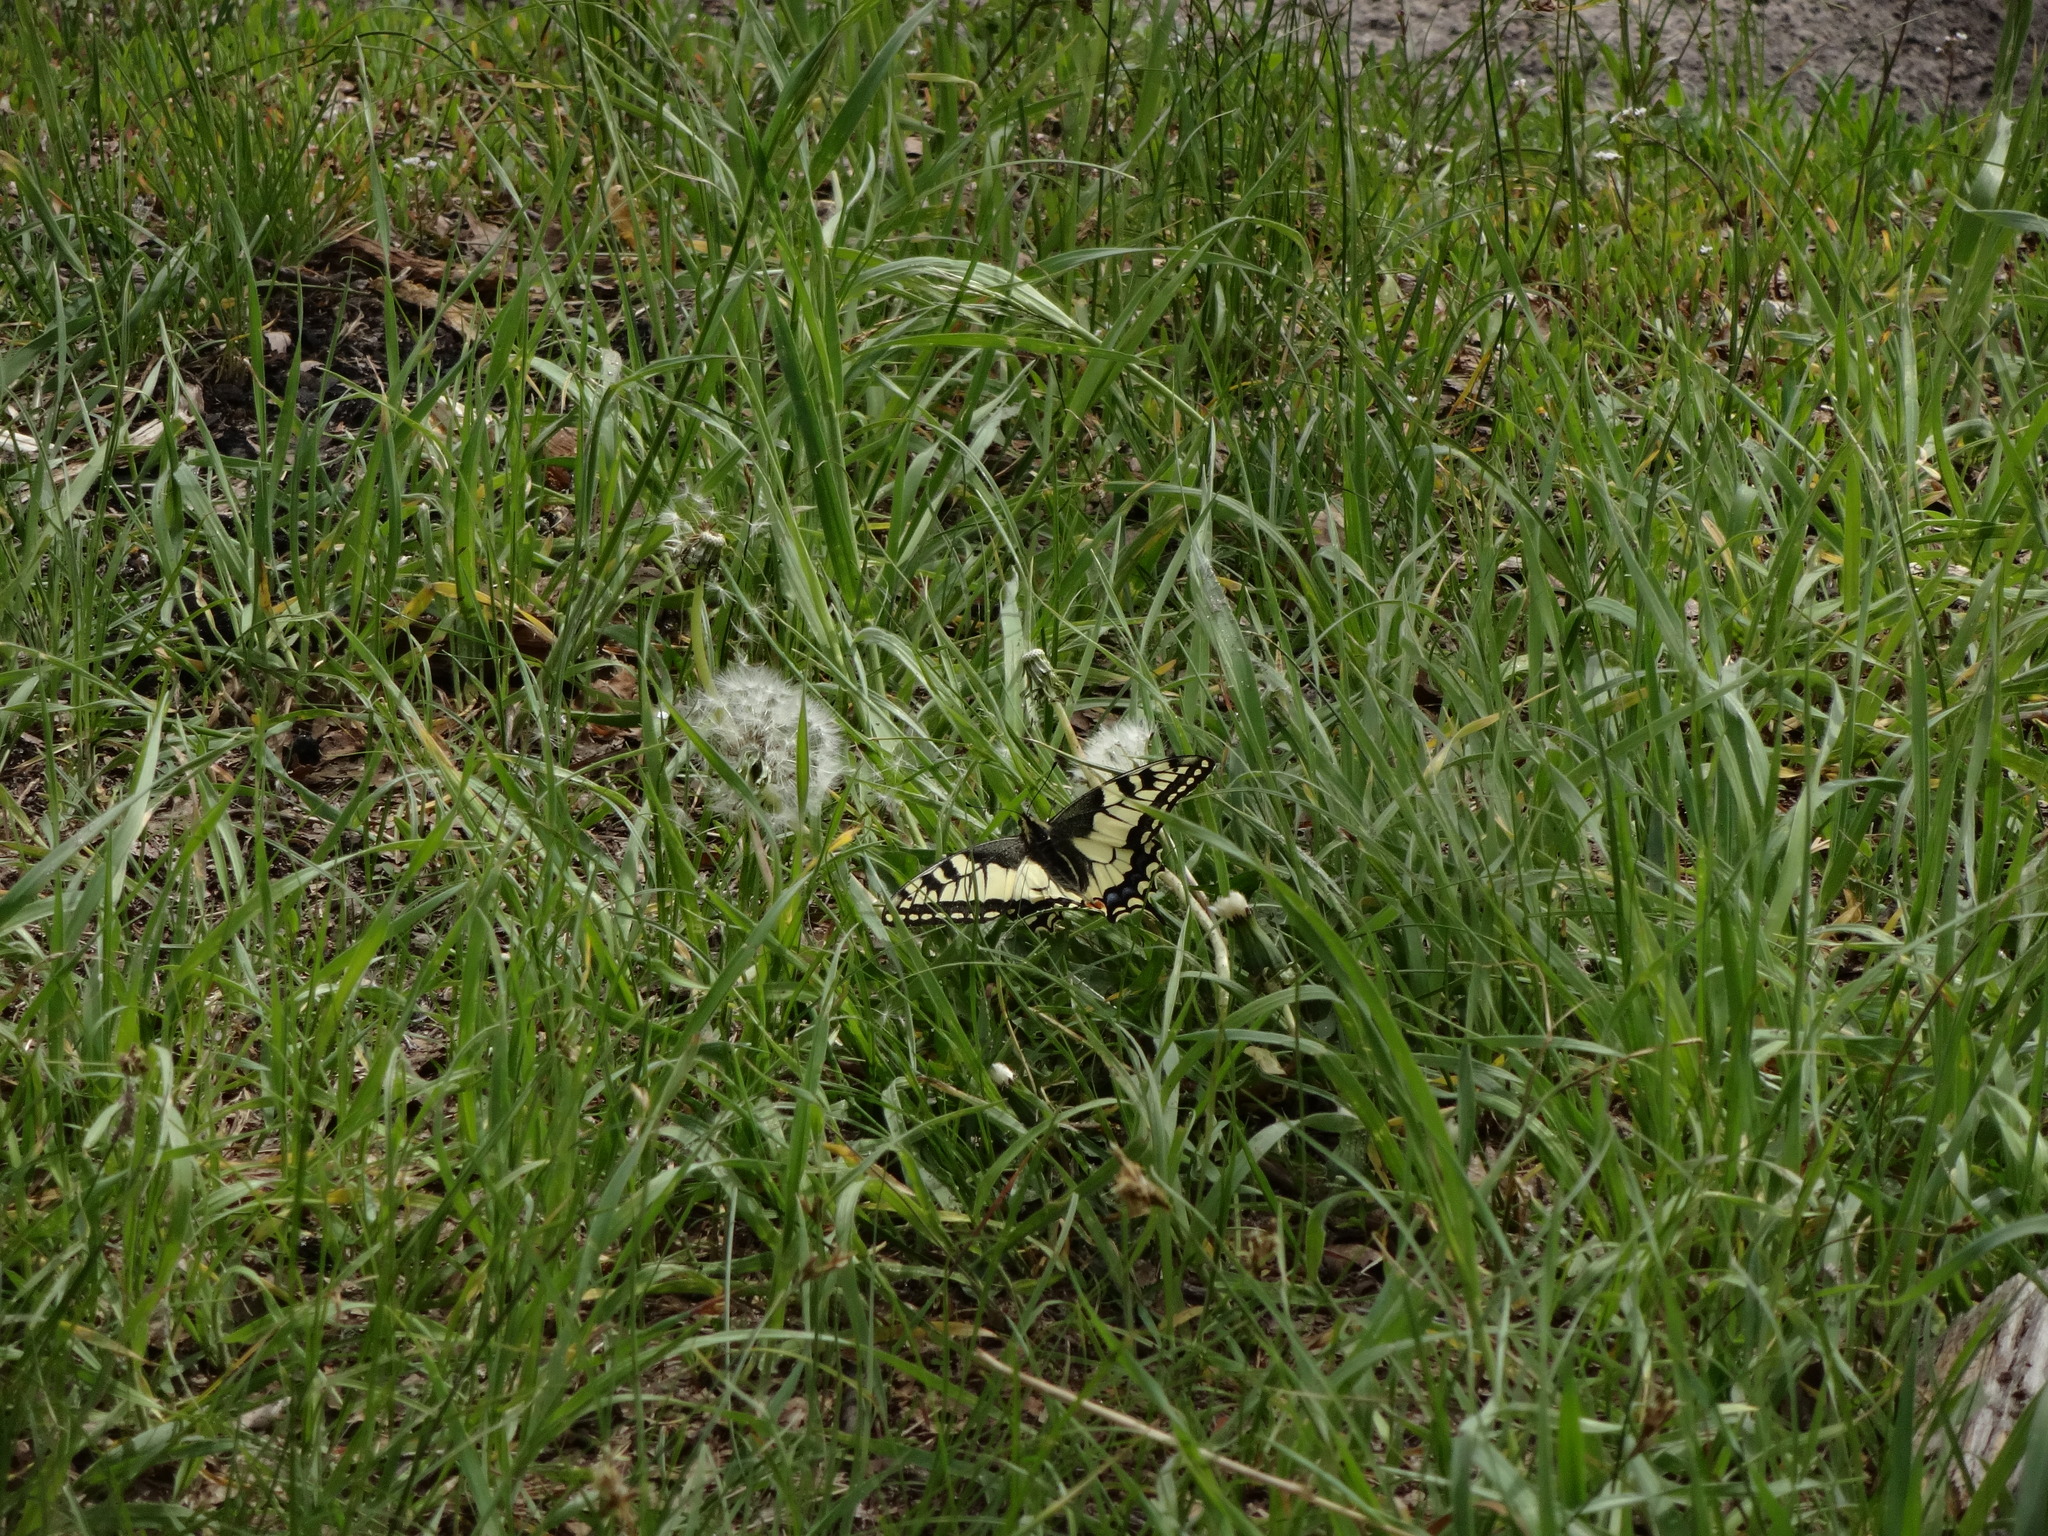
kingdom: Animalia
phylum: Arthropoda
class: Insecta
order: Lepidoptera
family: Papilionidae
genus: Papilio
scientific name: Papilio machaon
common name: Swallowtail
